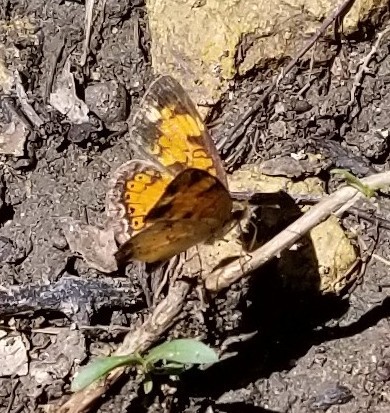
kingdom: Animalia
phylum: Arthropoda
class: Insecta
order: Lepidoptera
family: Nymphalidae
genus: Phyciodes
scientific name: Phyciodes tharos
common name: Pearl crescent
